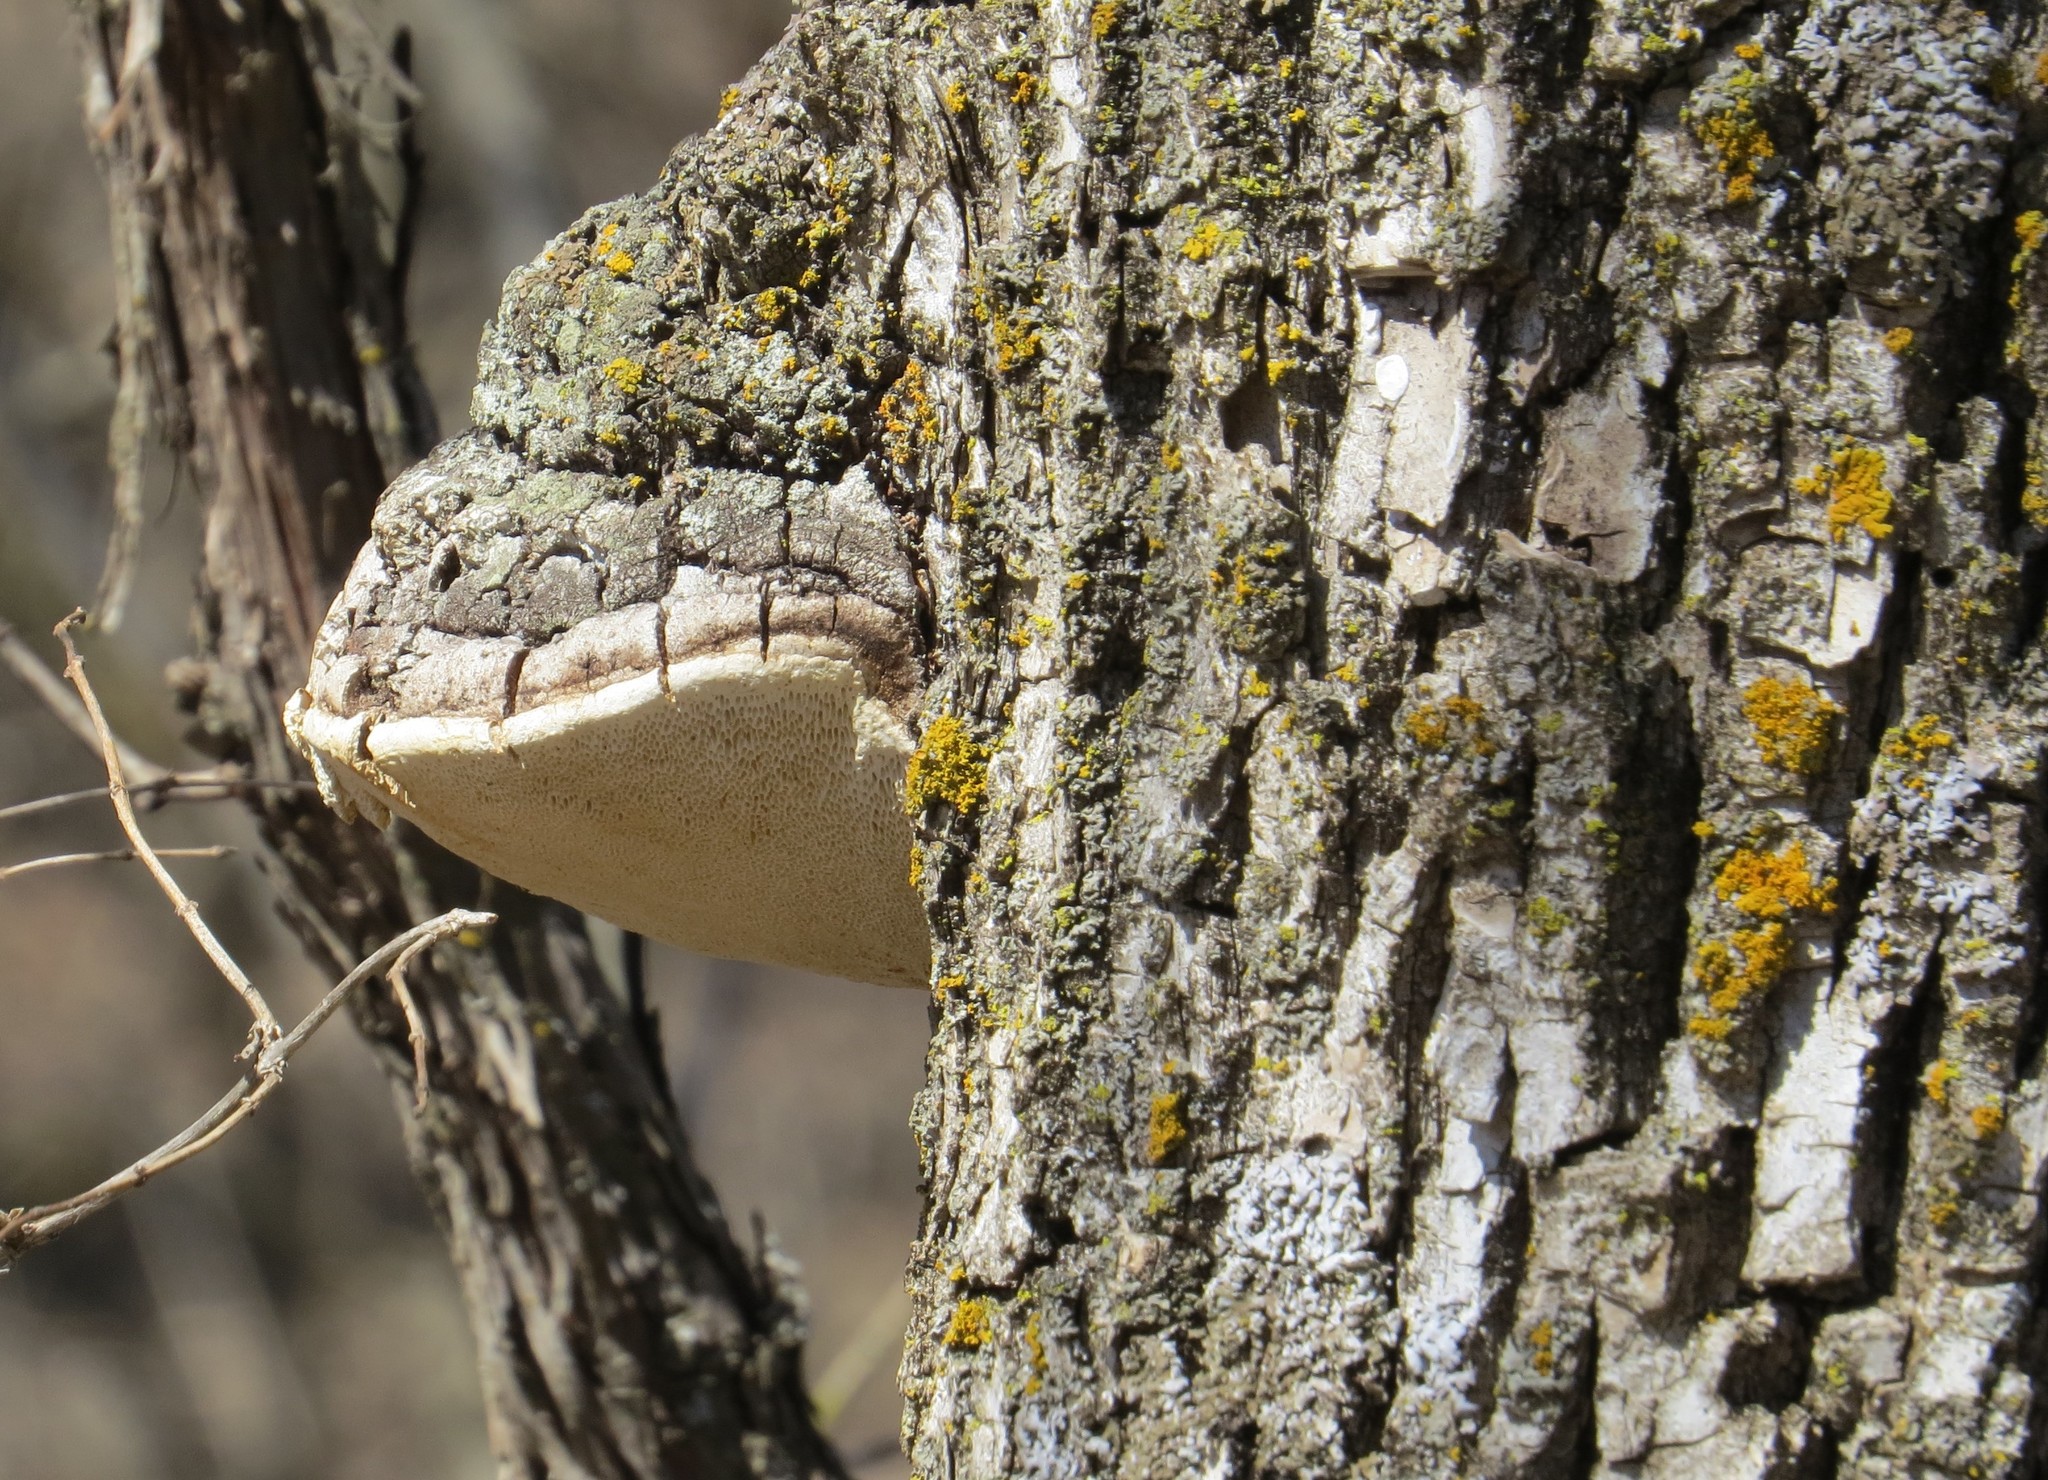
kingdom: Fungi
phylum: Basidiomycota
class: Agaricomycetes
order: Hymenochaetales
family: Hymenochaetaceae
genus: Phellinus
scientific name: Phellinus tremulae
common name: Aspen bracket
